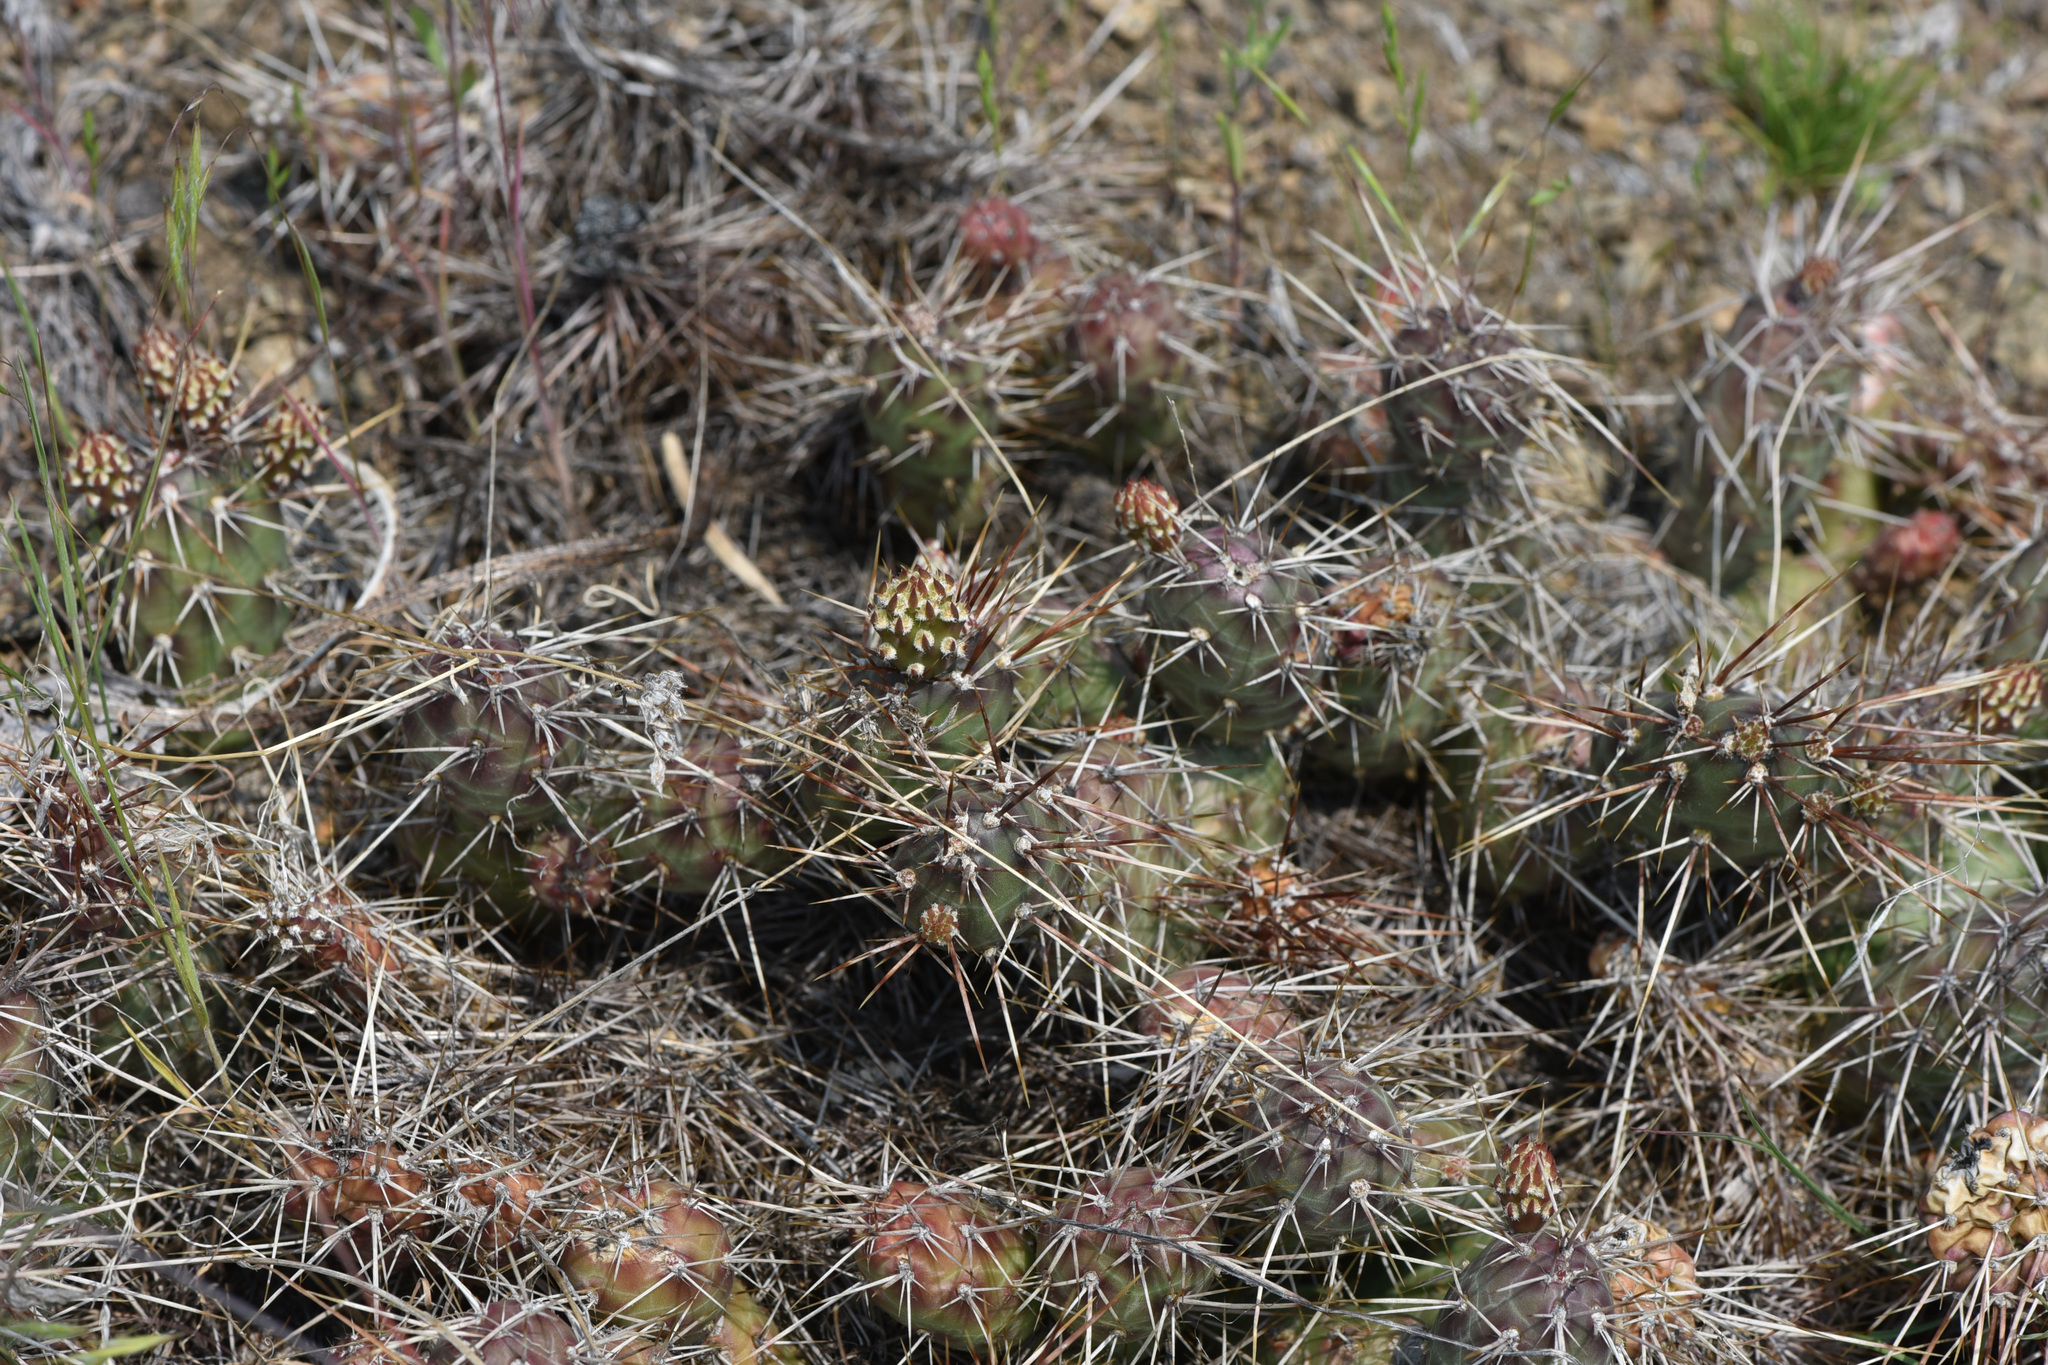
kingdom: Plantae
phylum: Tracheophyta
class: Magnoliopsida
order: Caryophyllales
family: Cactaceae
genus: Opuntia
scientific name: Opuntia fragilis
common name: Brittle cactus
